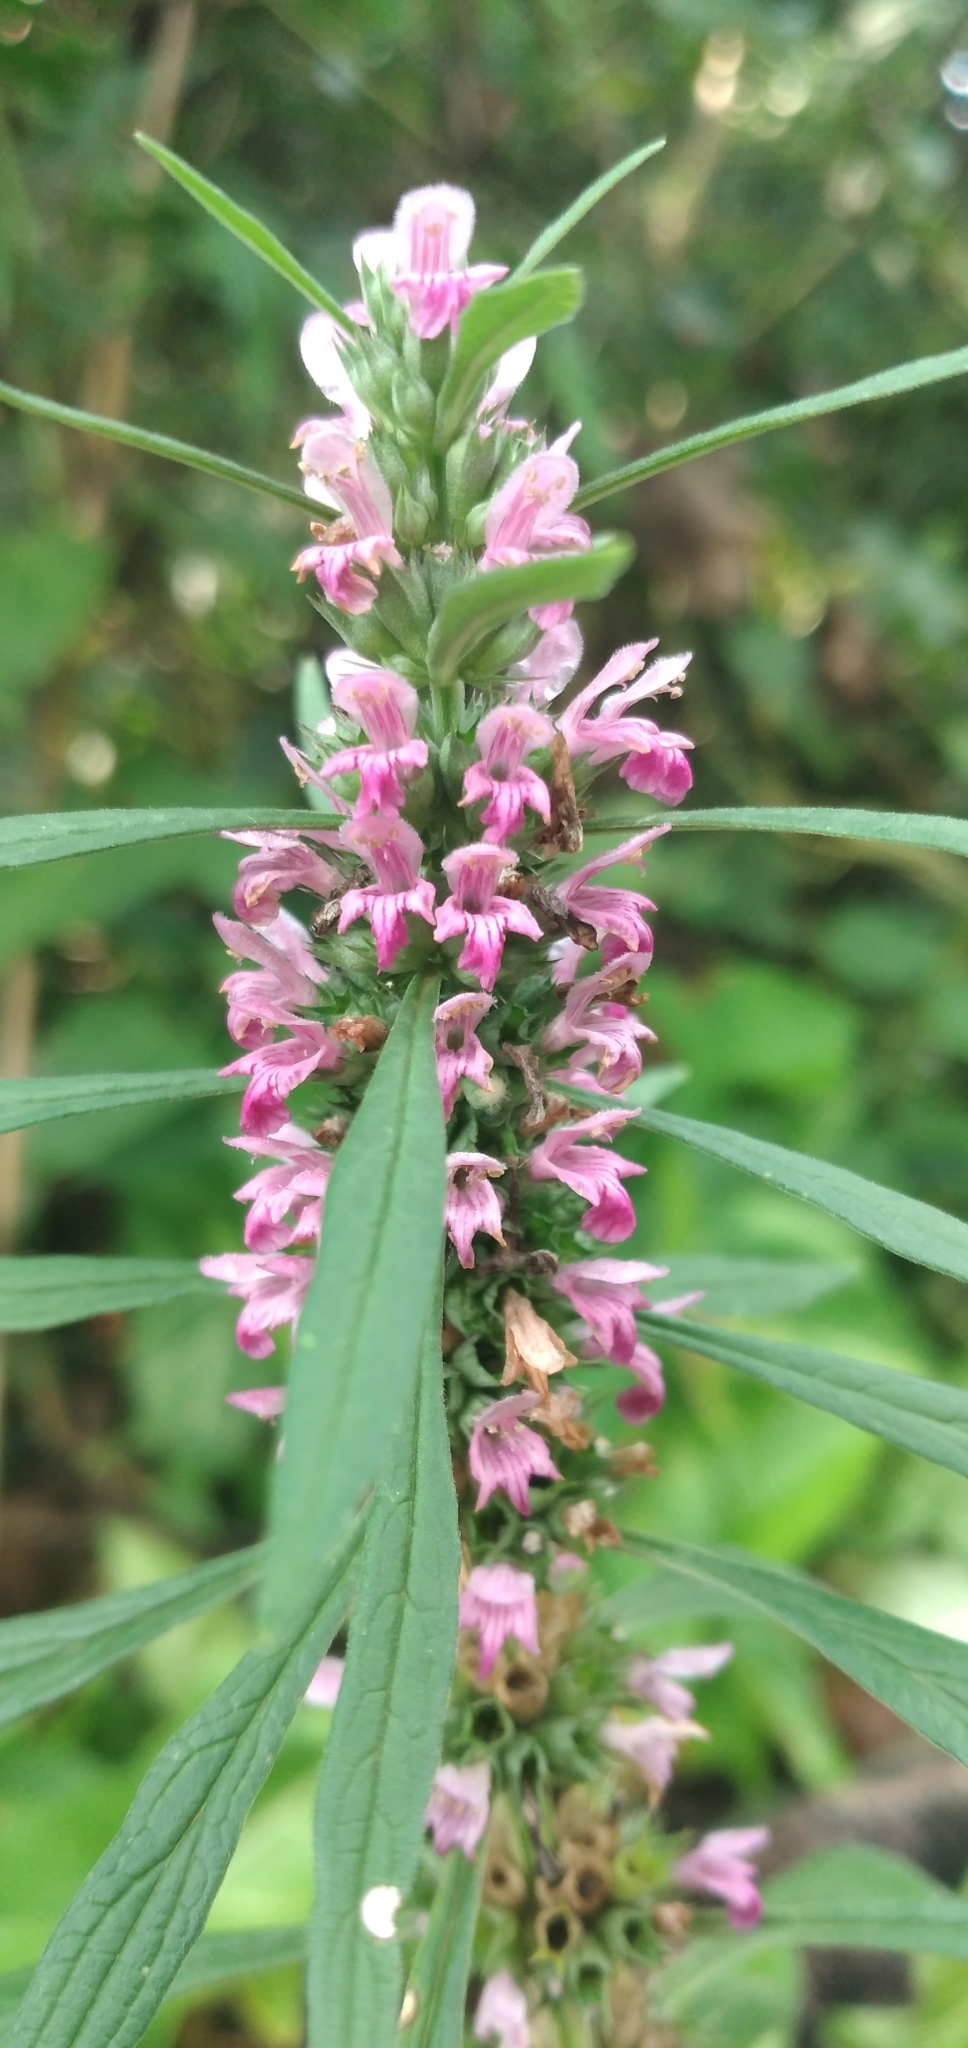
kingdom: Plantae
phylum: Tracheophyta
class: Magnoliopsida
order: Lamiales
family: Lamiaceae
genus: Leonurus
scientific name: Leonurus japonicus
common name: Honeyweed
